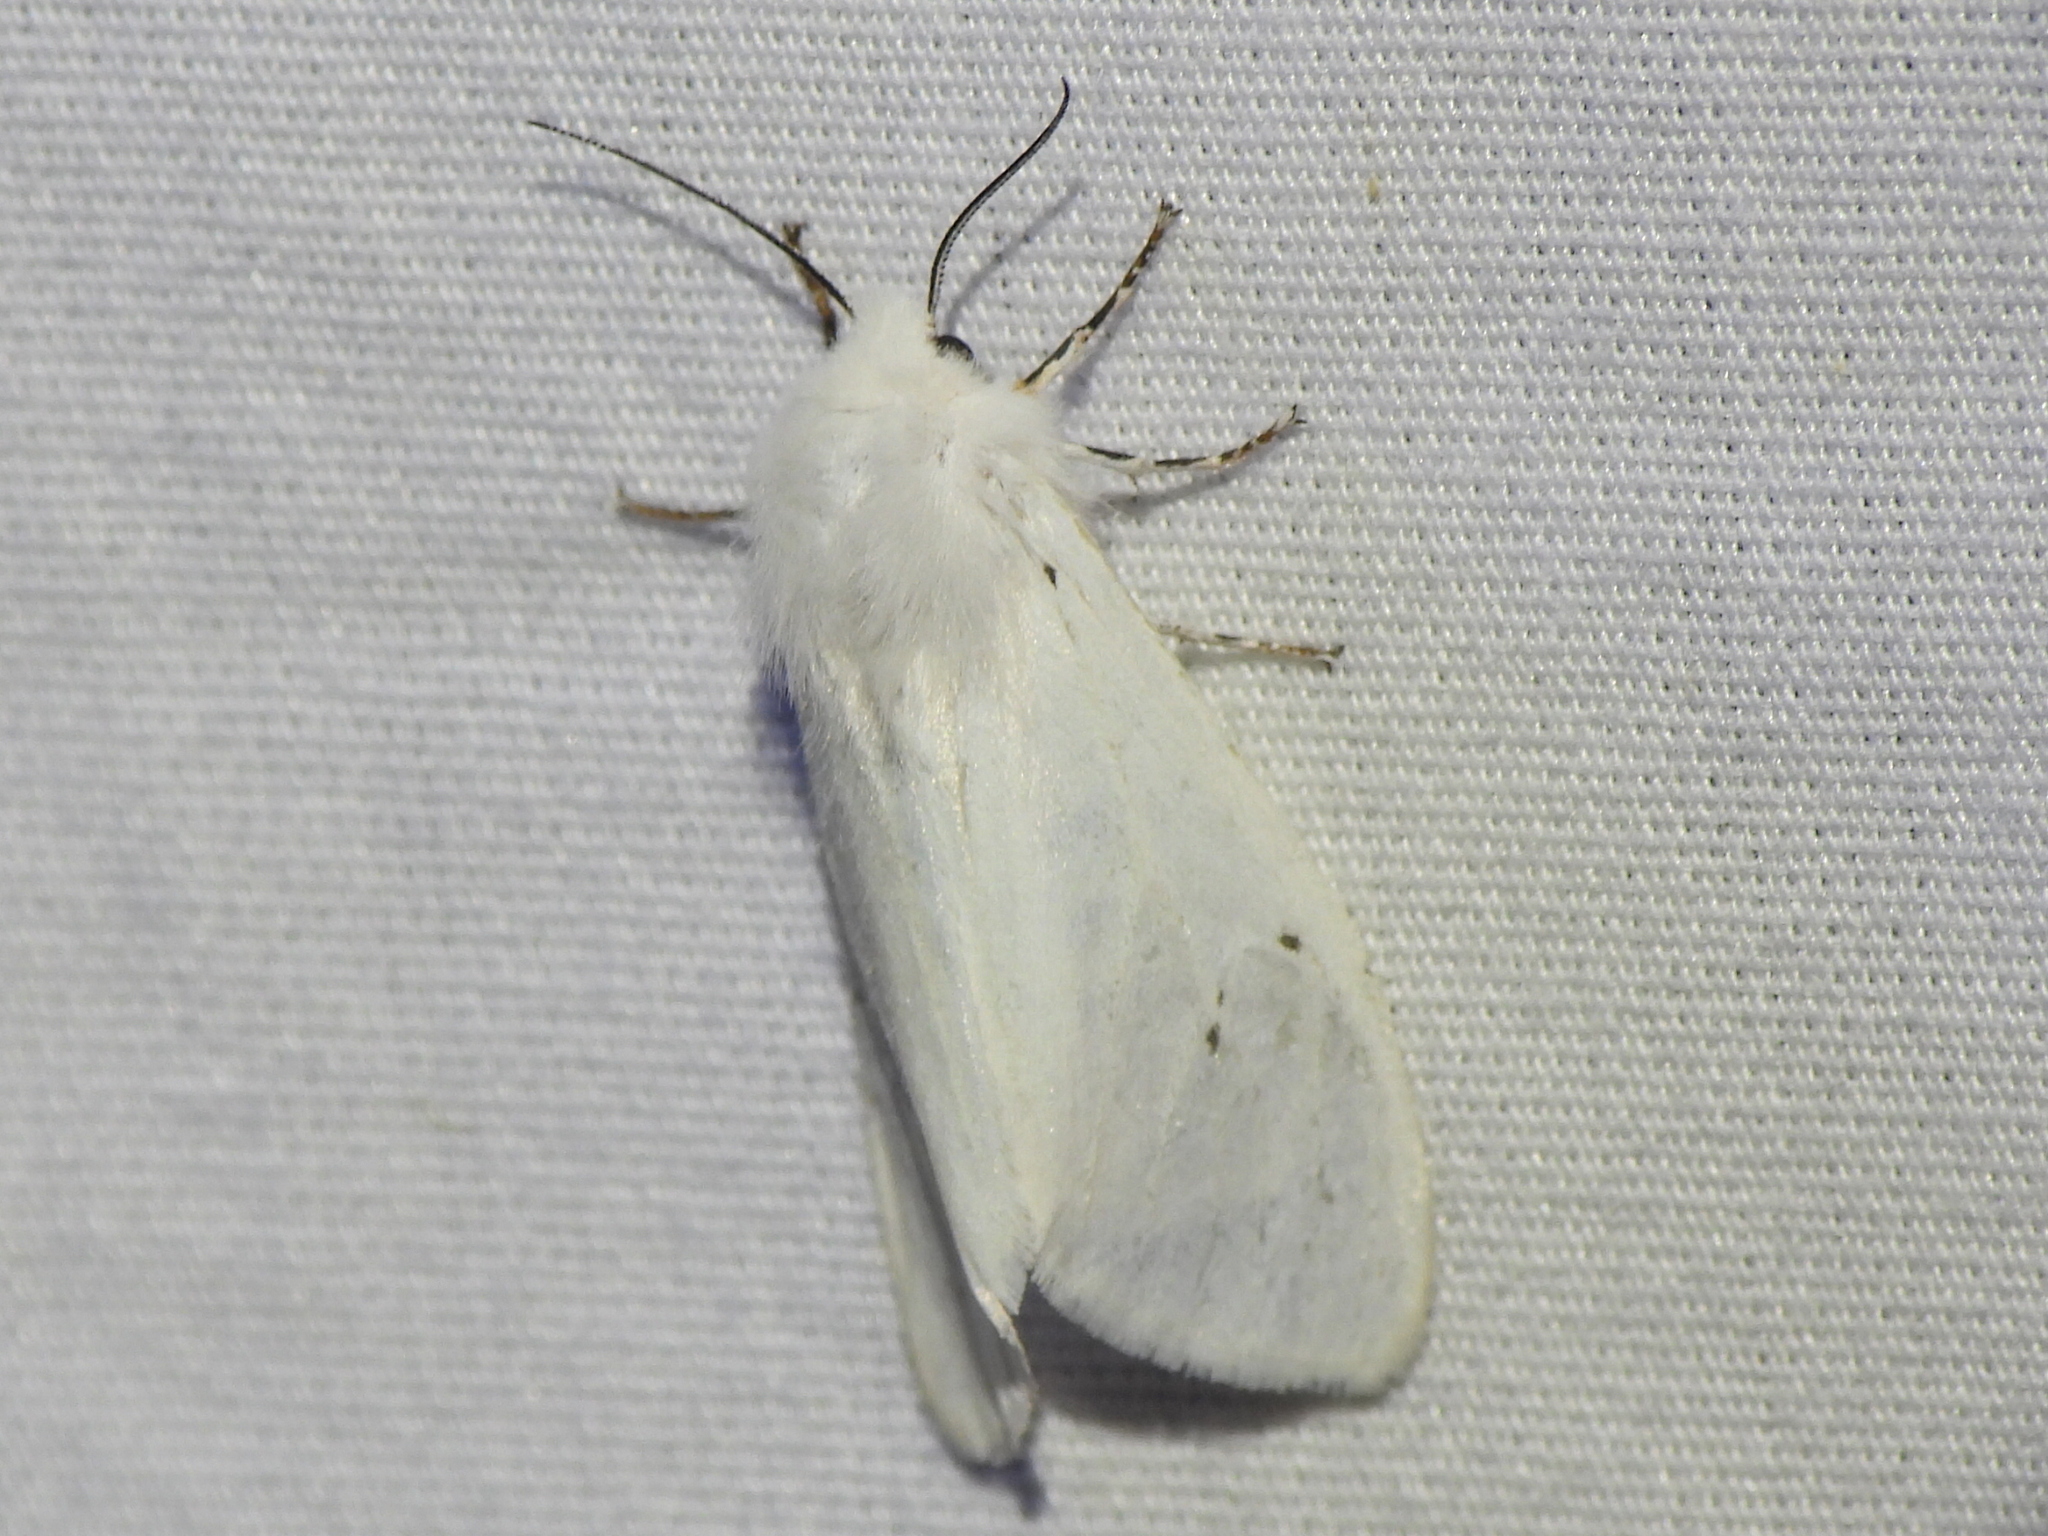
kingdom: Animalia
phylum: Arthropoda
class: Insecta
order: Lepidoptera
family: Erebidae
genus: Hyphantria
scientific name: Hyphantria cunea
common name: American white moth
